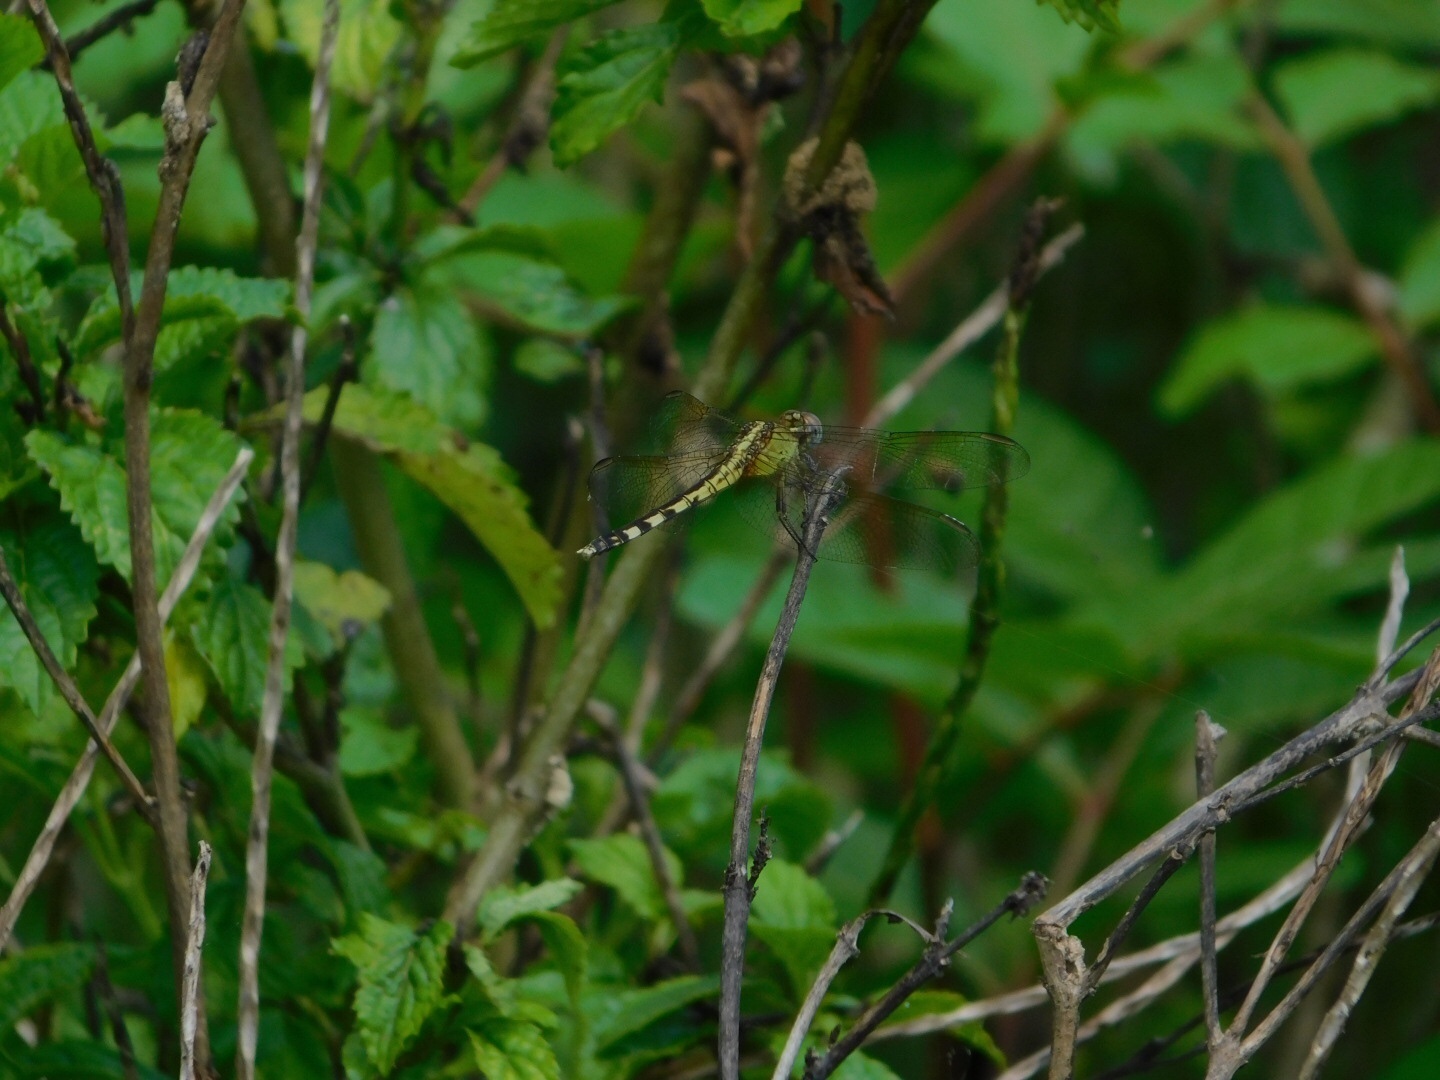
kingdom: Animalia
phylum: Arthropoda
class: Insecta
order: Odonata
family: Libellulidae
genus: Erythemis
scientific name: Erythemis simplicicollis
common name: Eastern pondhawk
